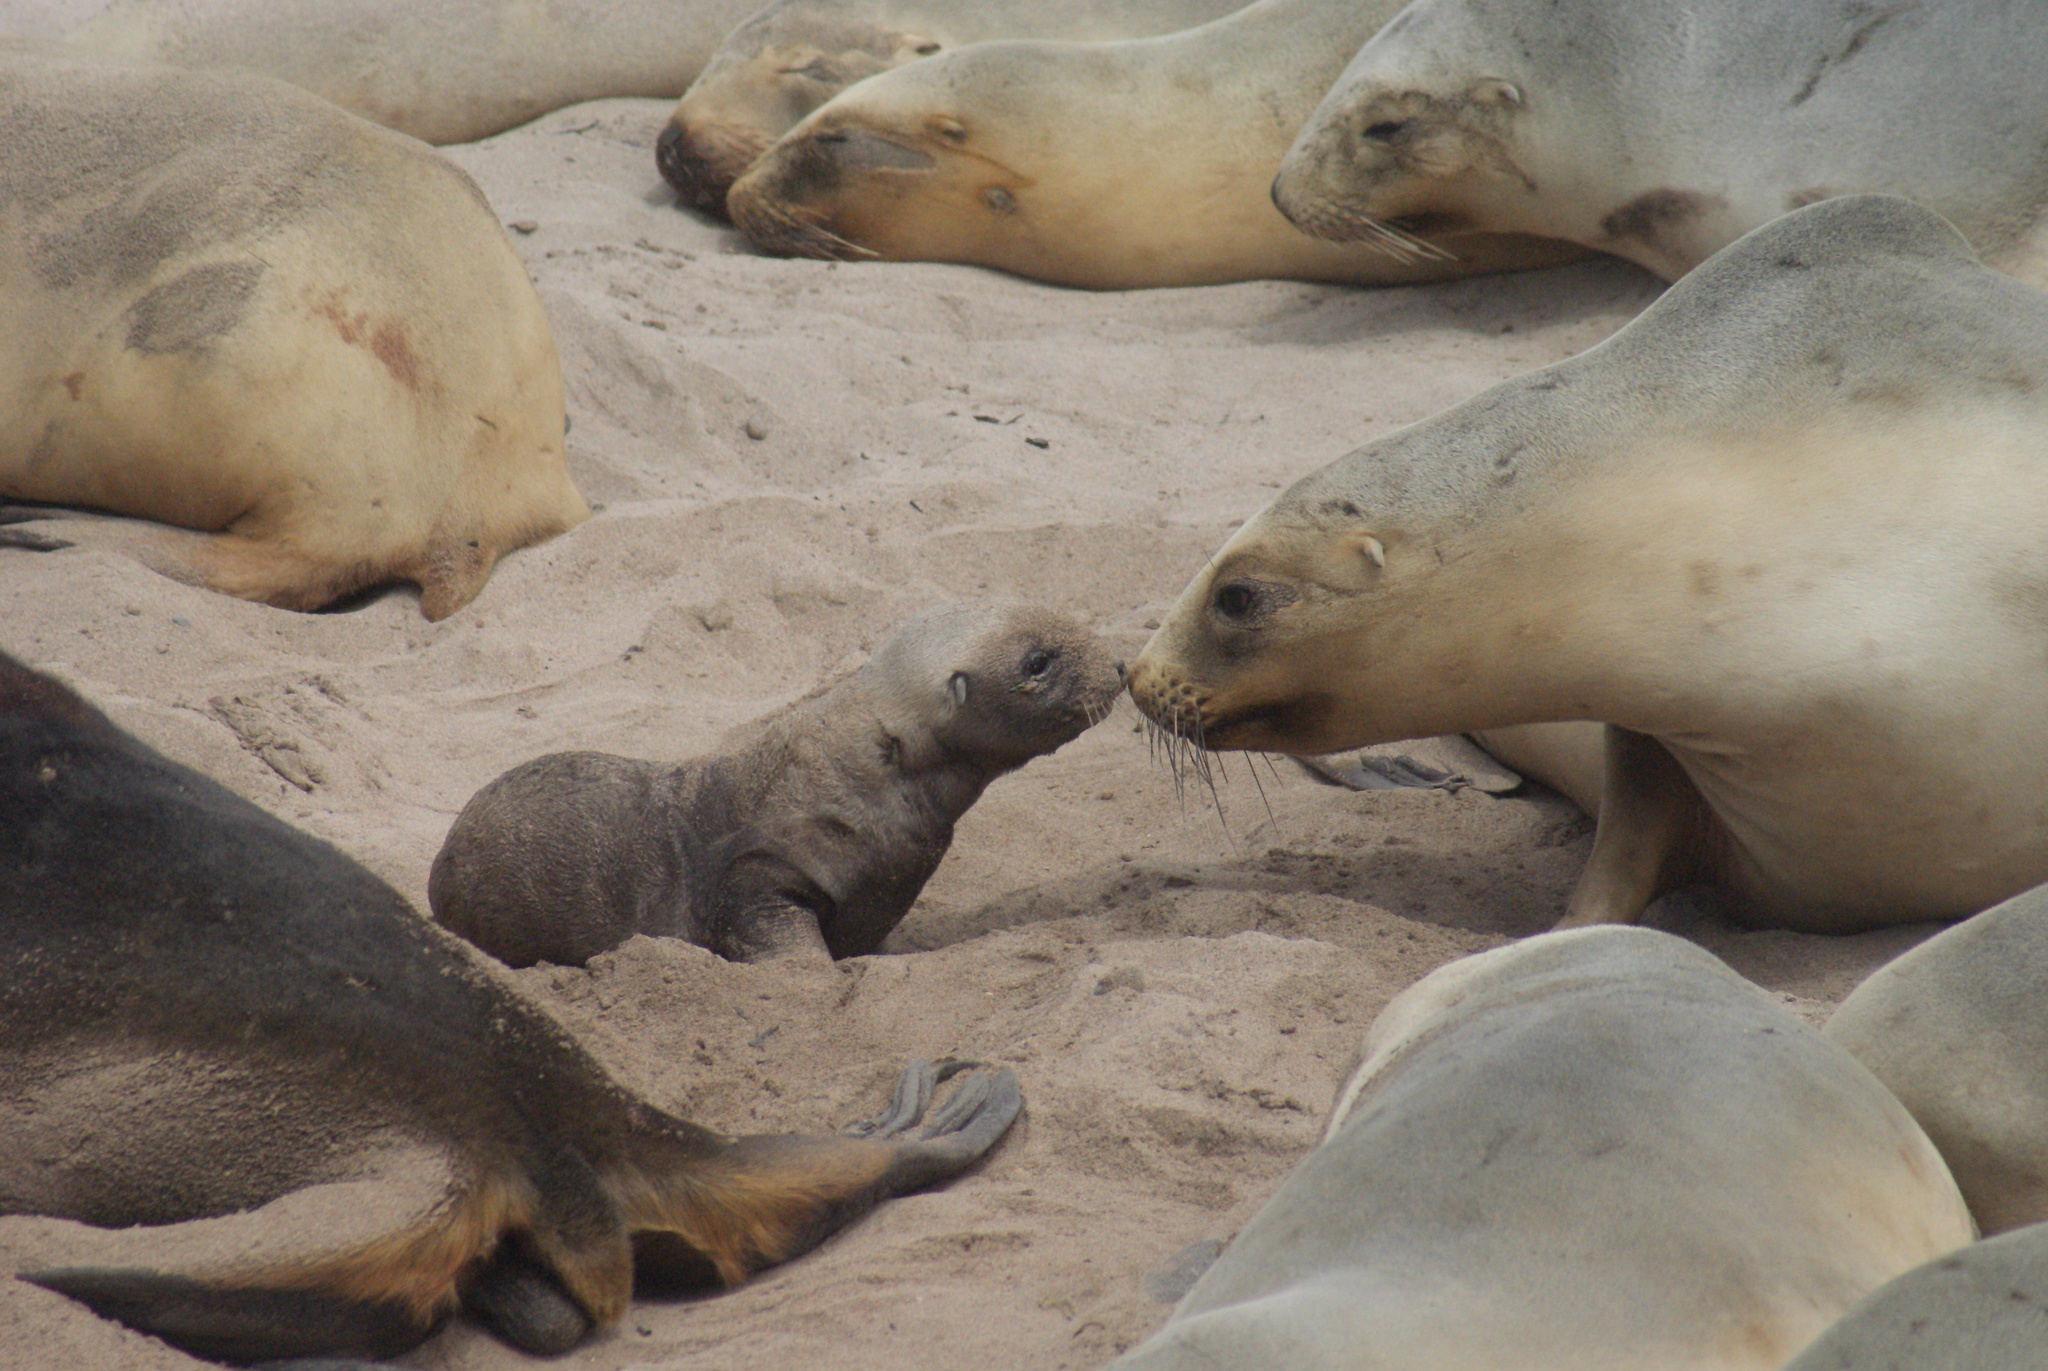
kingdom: Animalia
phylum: Chordata
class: Mammalia
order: Carnivora
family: Otariidae
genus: Phocarctos
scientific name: Phocarctos hookeri
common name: New zealand sea lion
